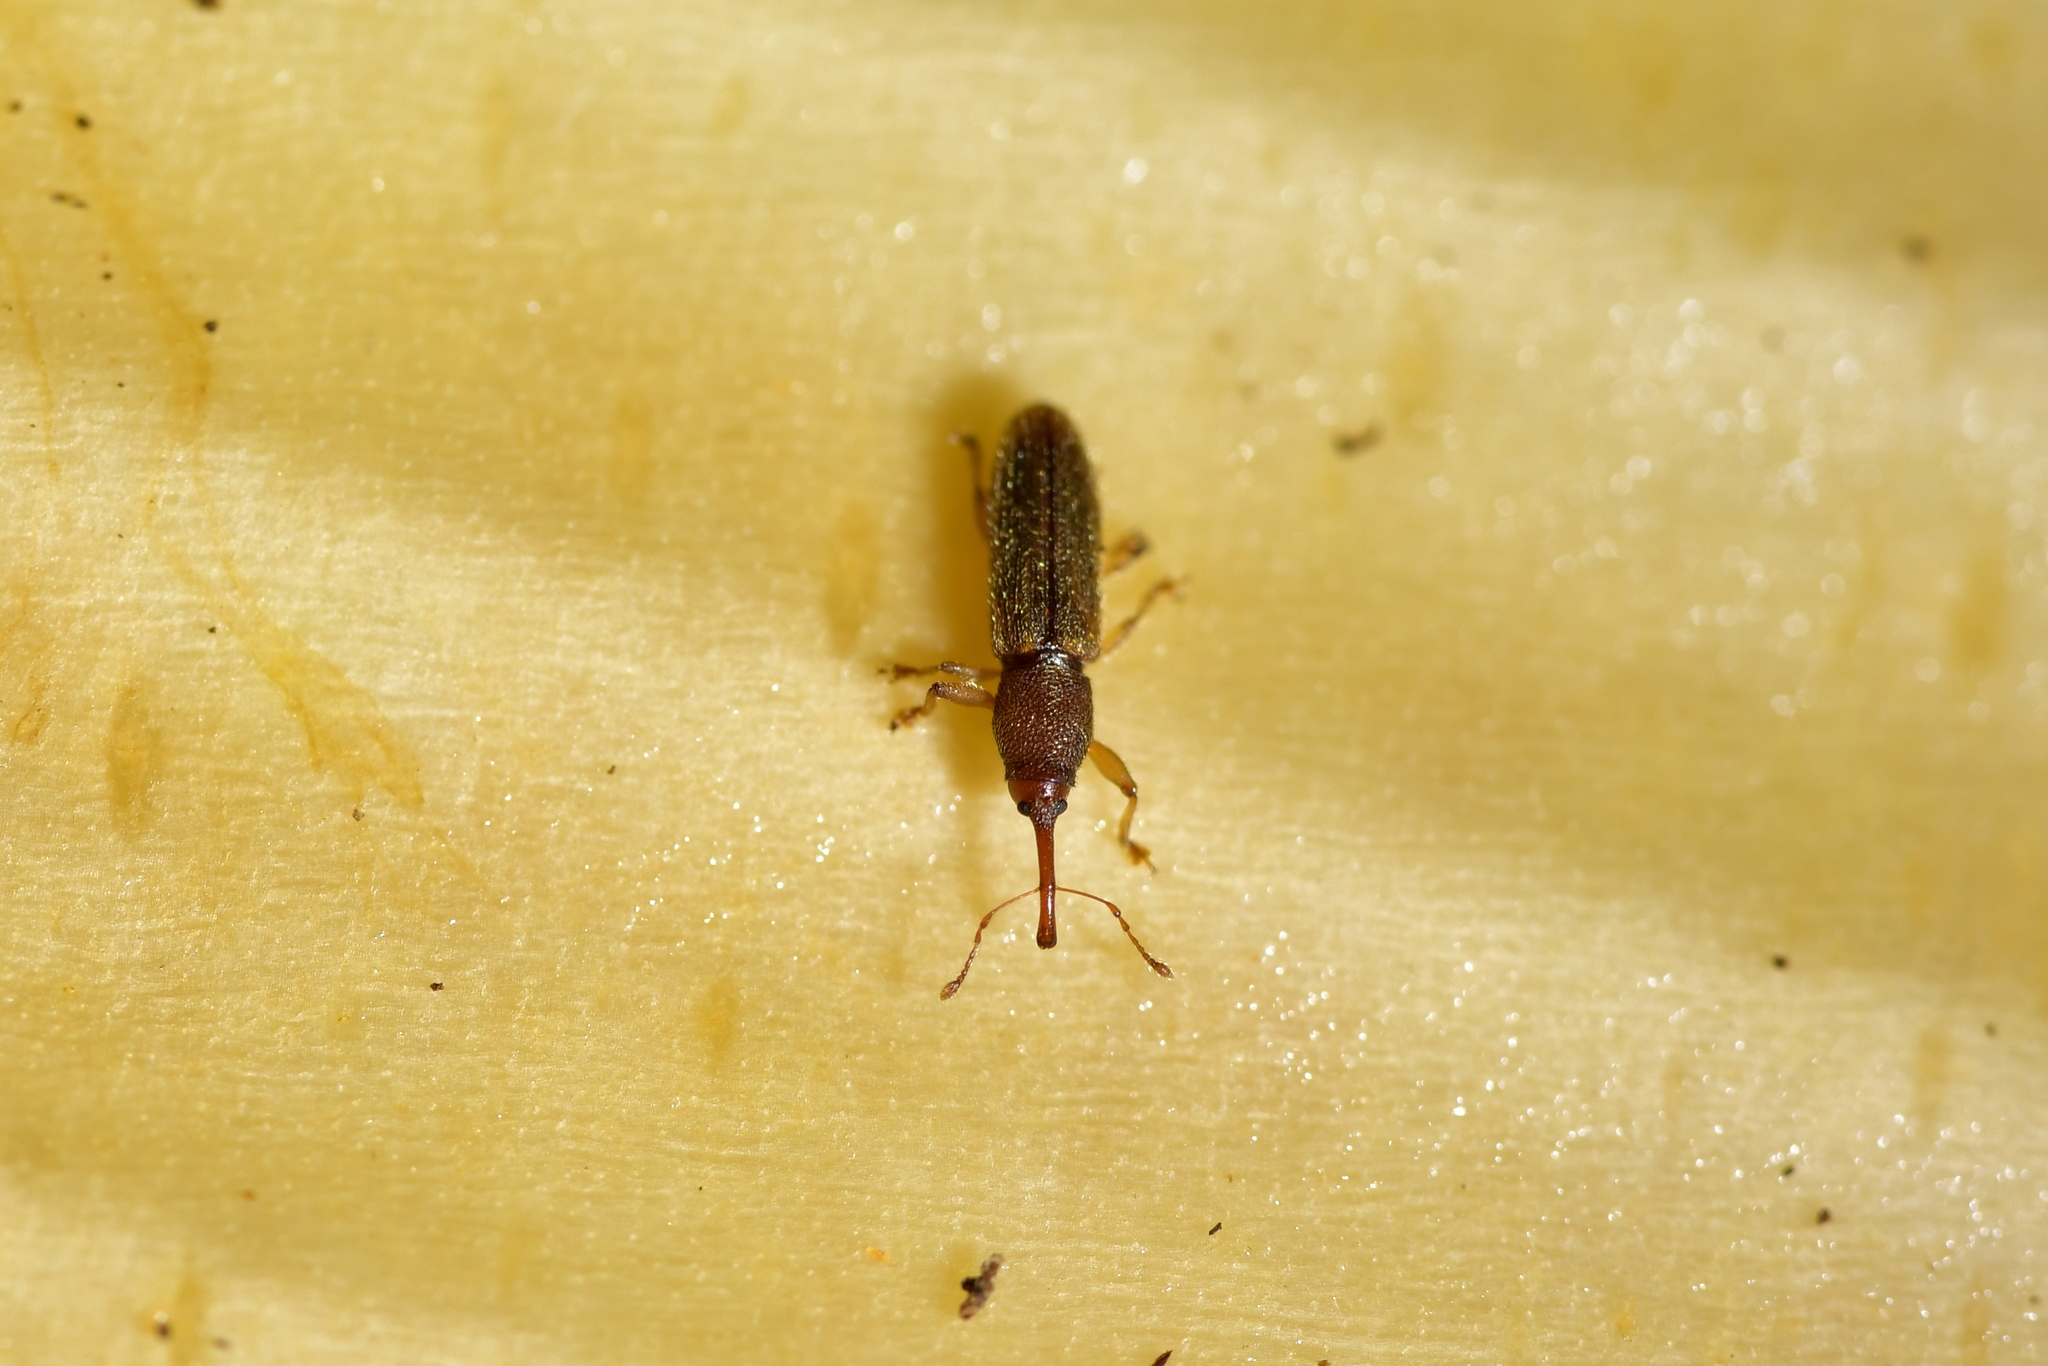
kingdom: Animalia
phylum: Arthropoda
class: Insecta
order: Coleoptera
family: Curculionidae
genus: Arecocryptus
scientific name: Arecocryptus bellus
